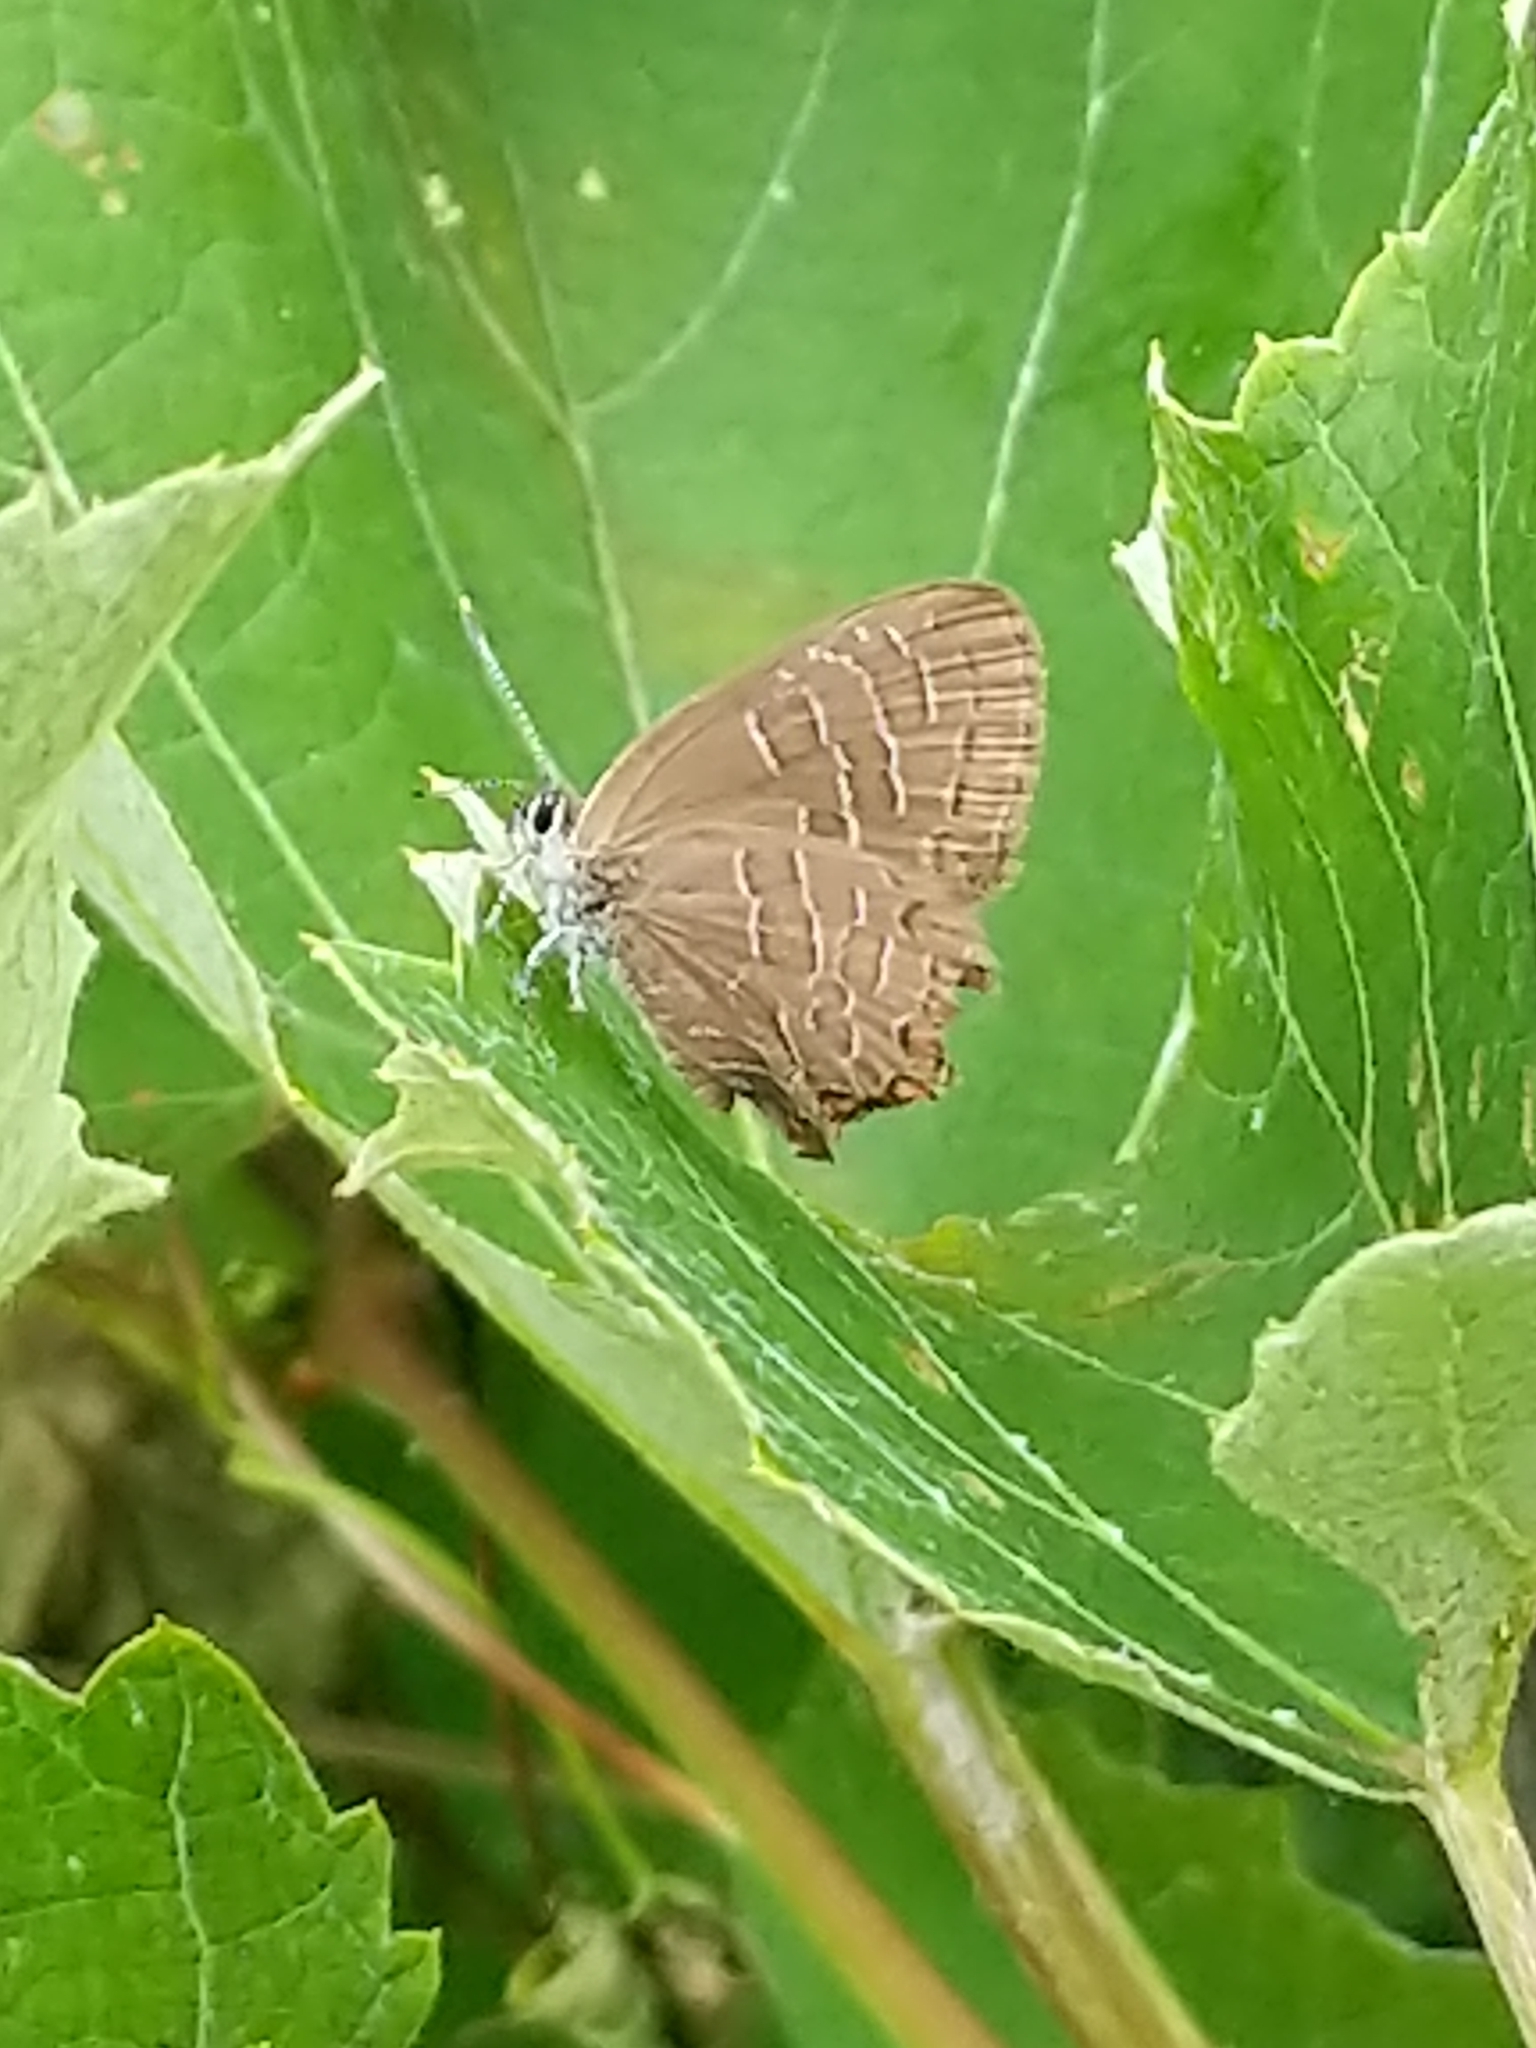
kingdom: Animalia
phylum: Arthropoda
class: Insecta
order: Lepidoptera
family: Lycaenidae
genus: Satyrium
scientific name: Satyrium liparops
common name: Striped hairstreak
